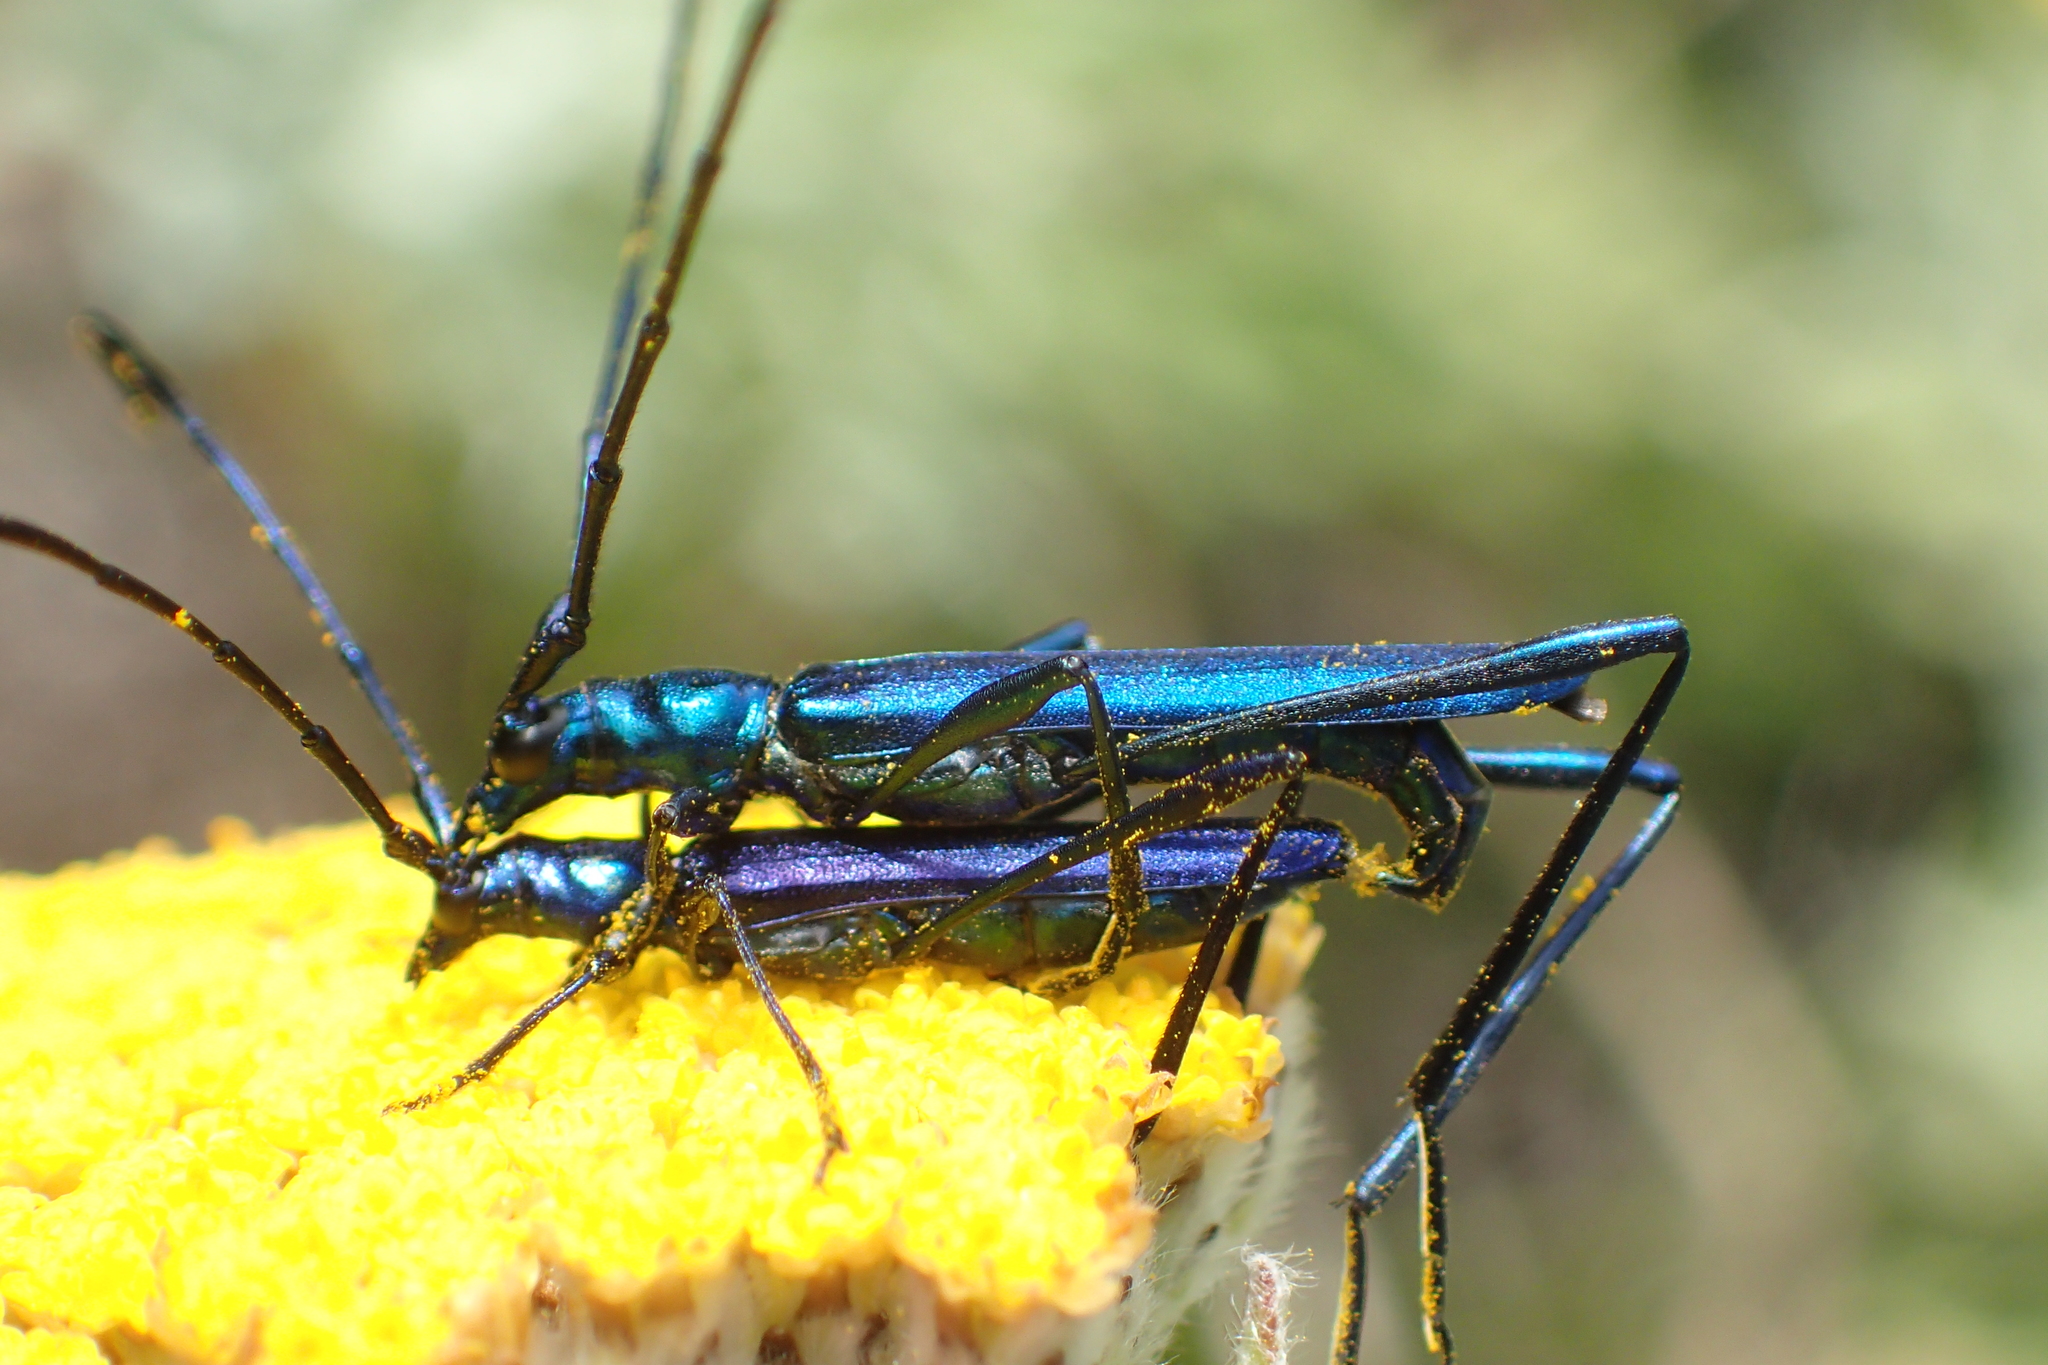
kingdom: Animalia
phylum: Arthropoda
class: Insecta
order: Coleoptera
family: Cerambycidae
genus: Promeces
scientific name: Promeces longipes
